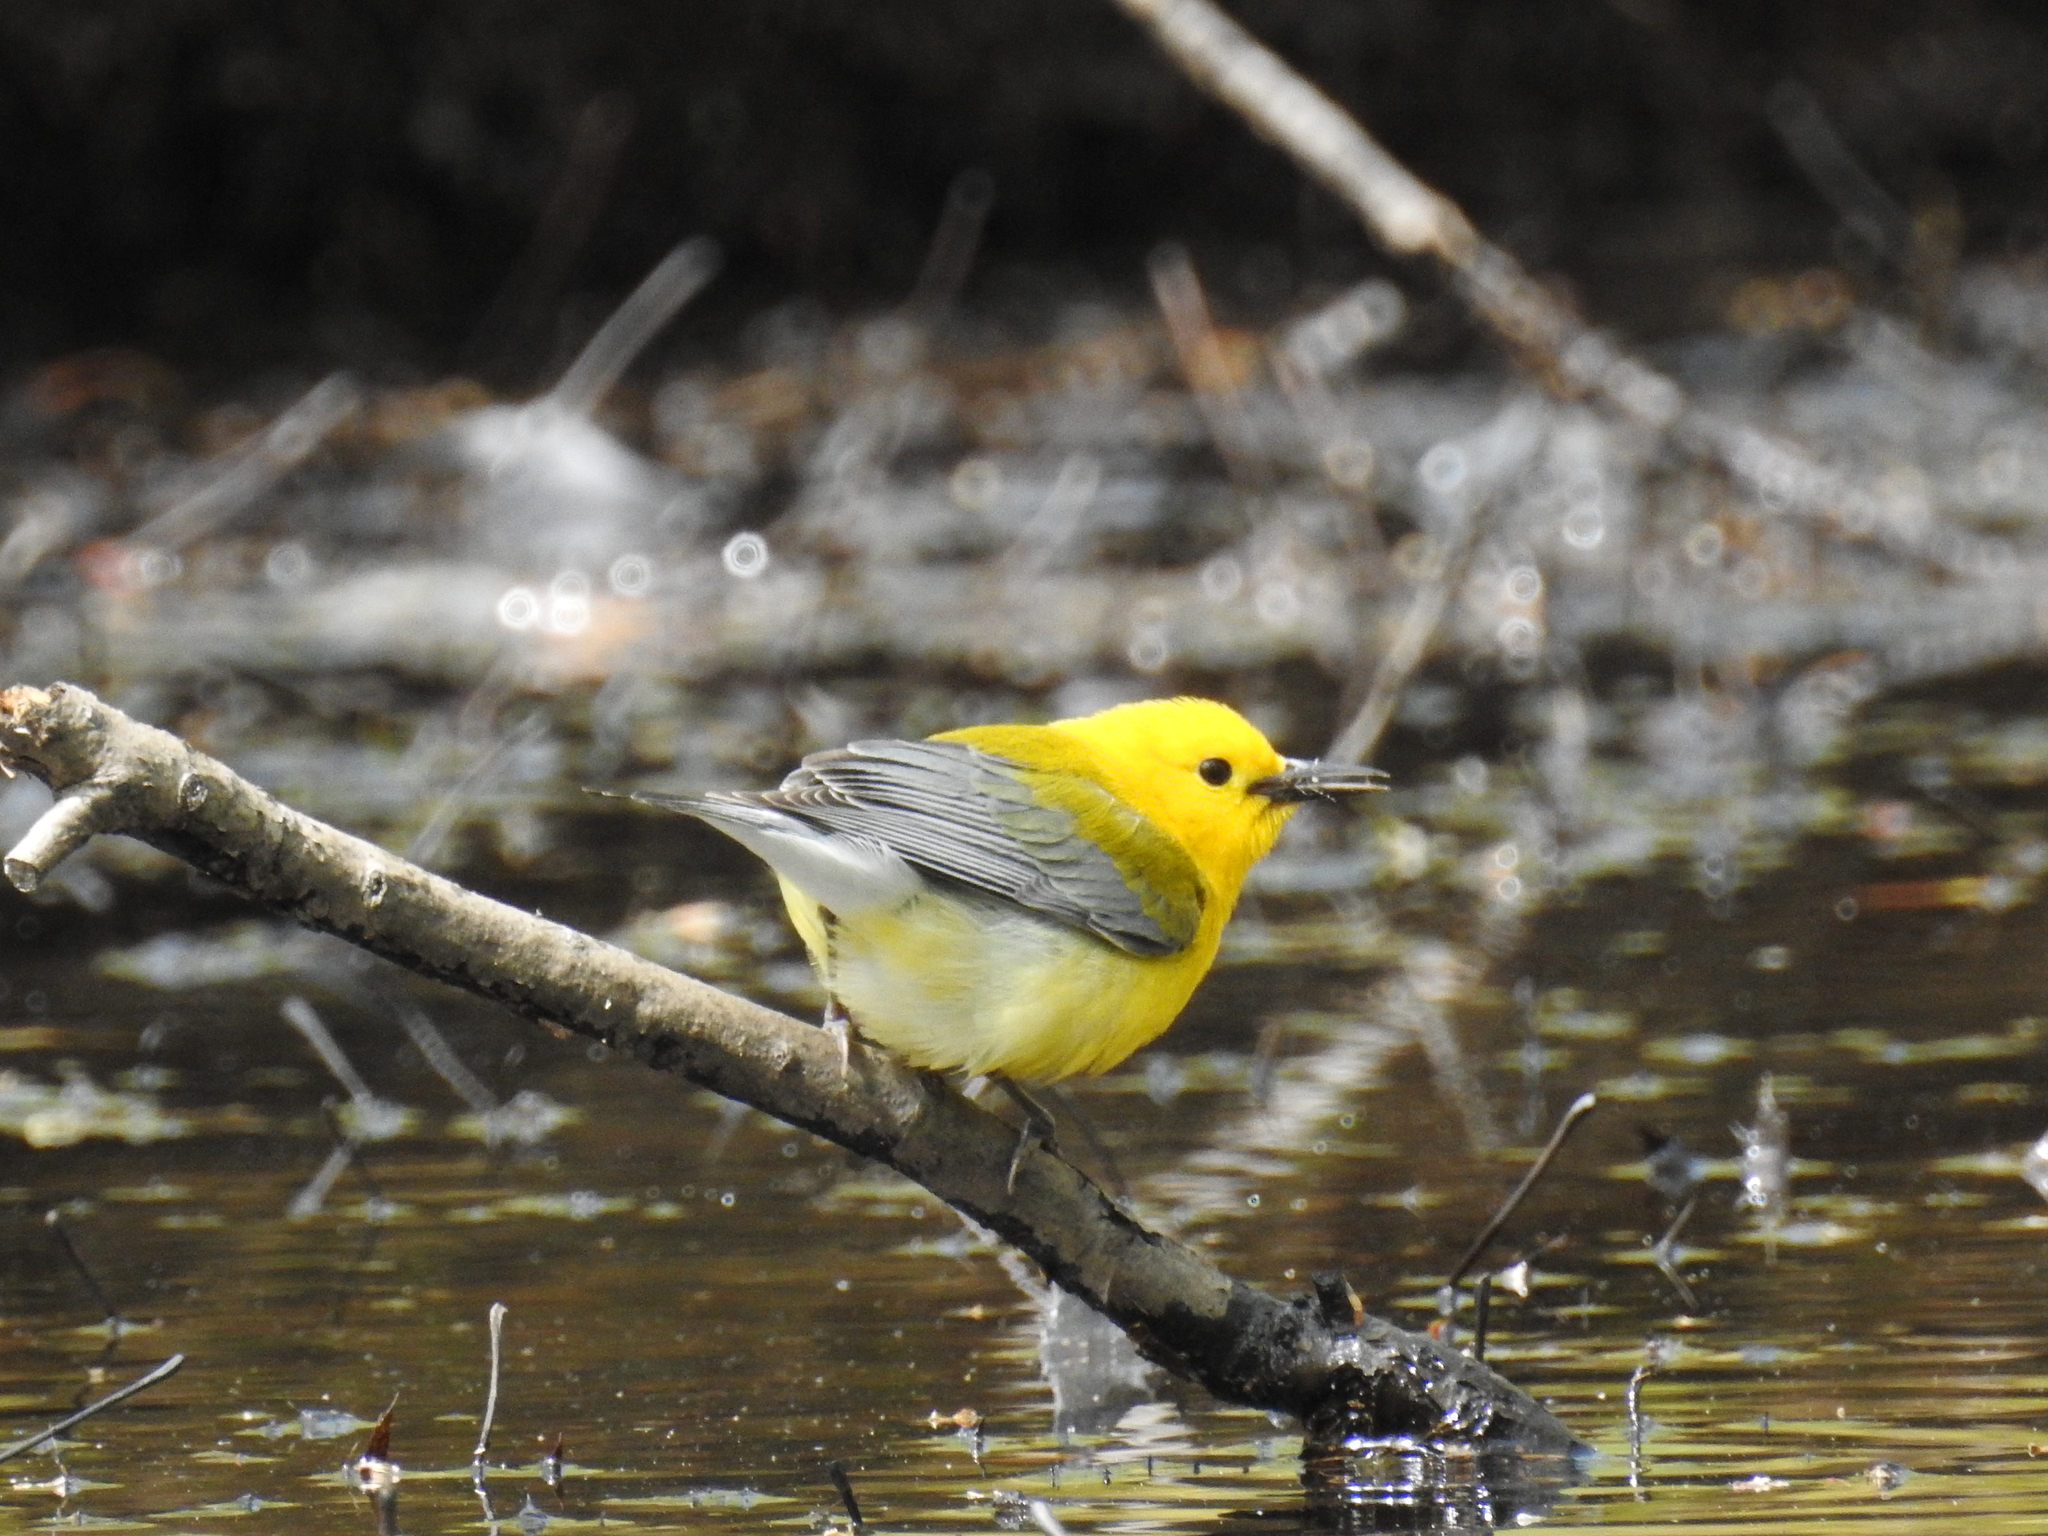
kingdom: Animalia
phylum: Chordata
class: Aves
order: Passeriformes
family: Parulidae
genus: Protonotaria
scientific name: Protonotaria citrea
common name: Prothonotary warbler
